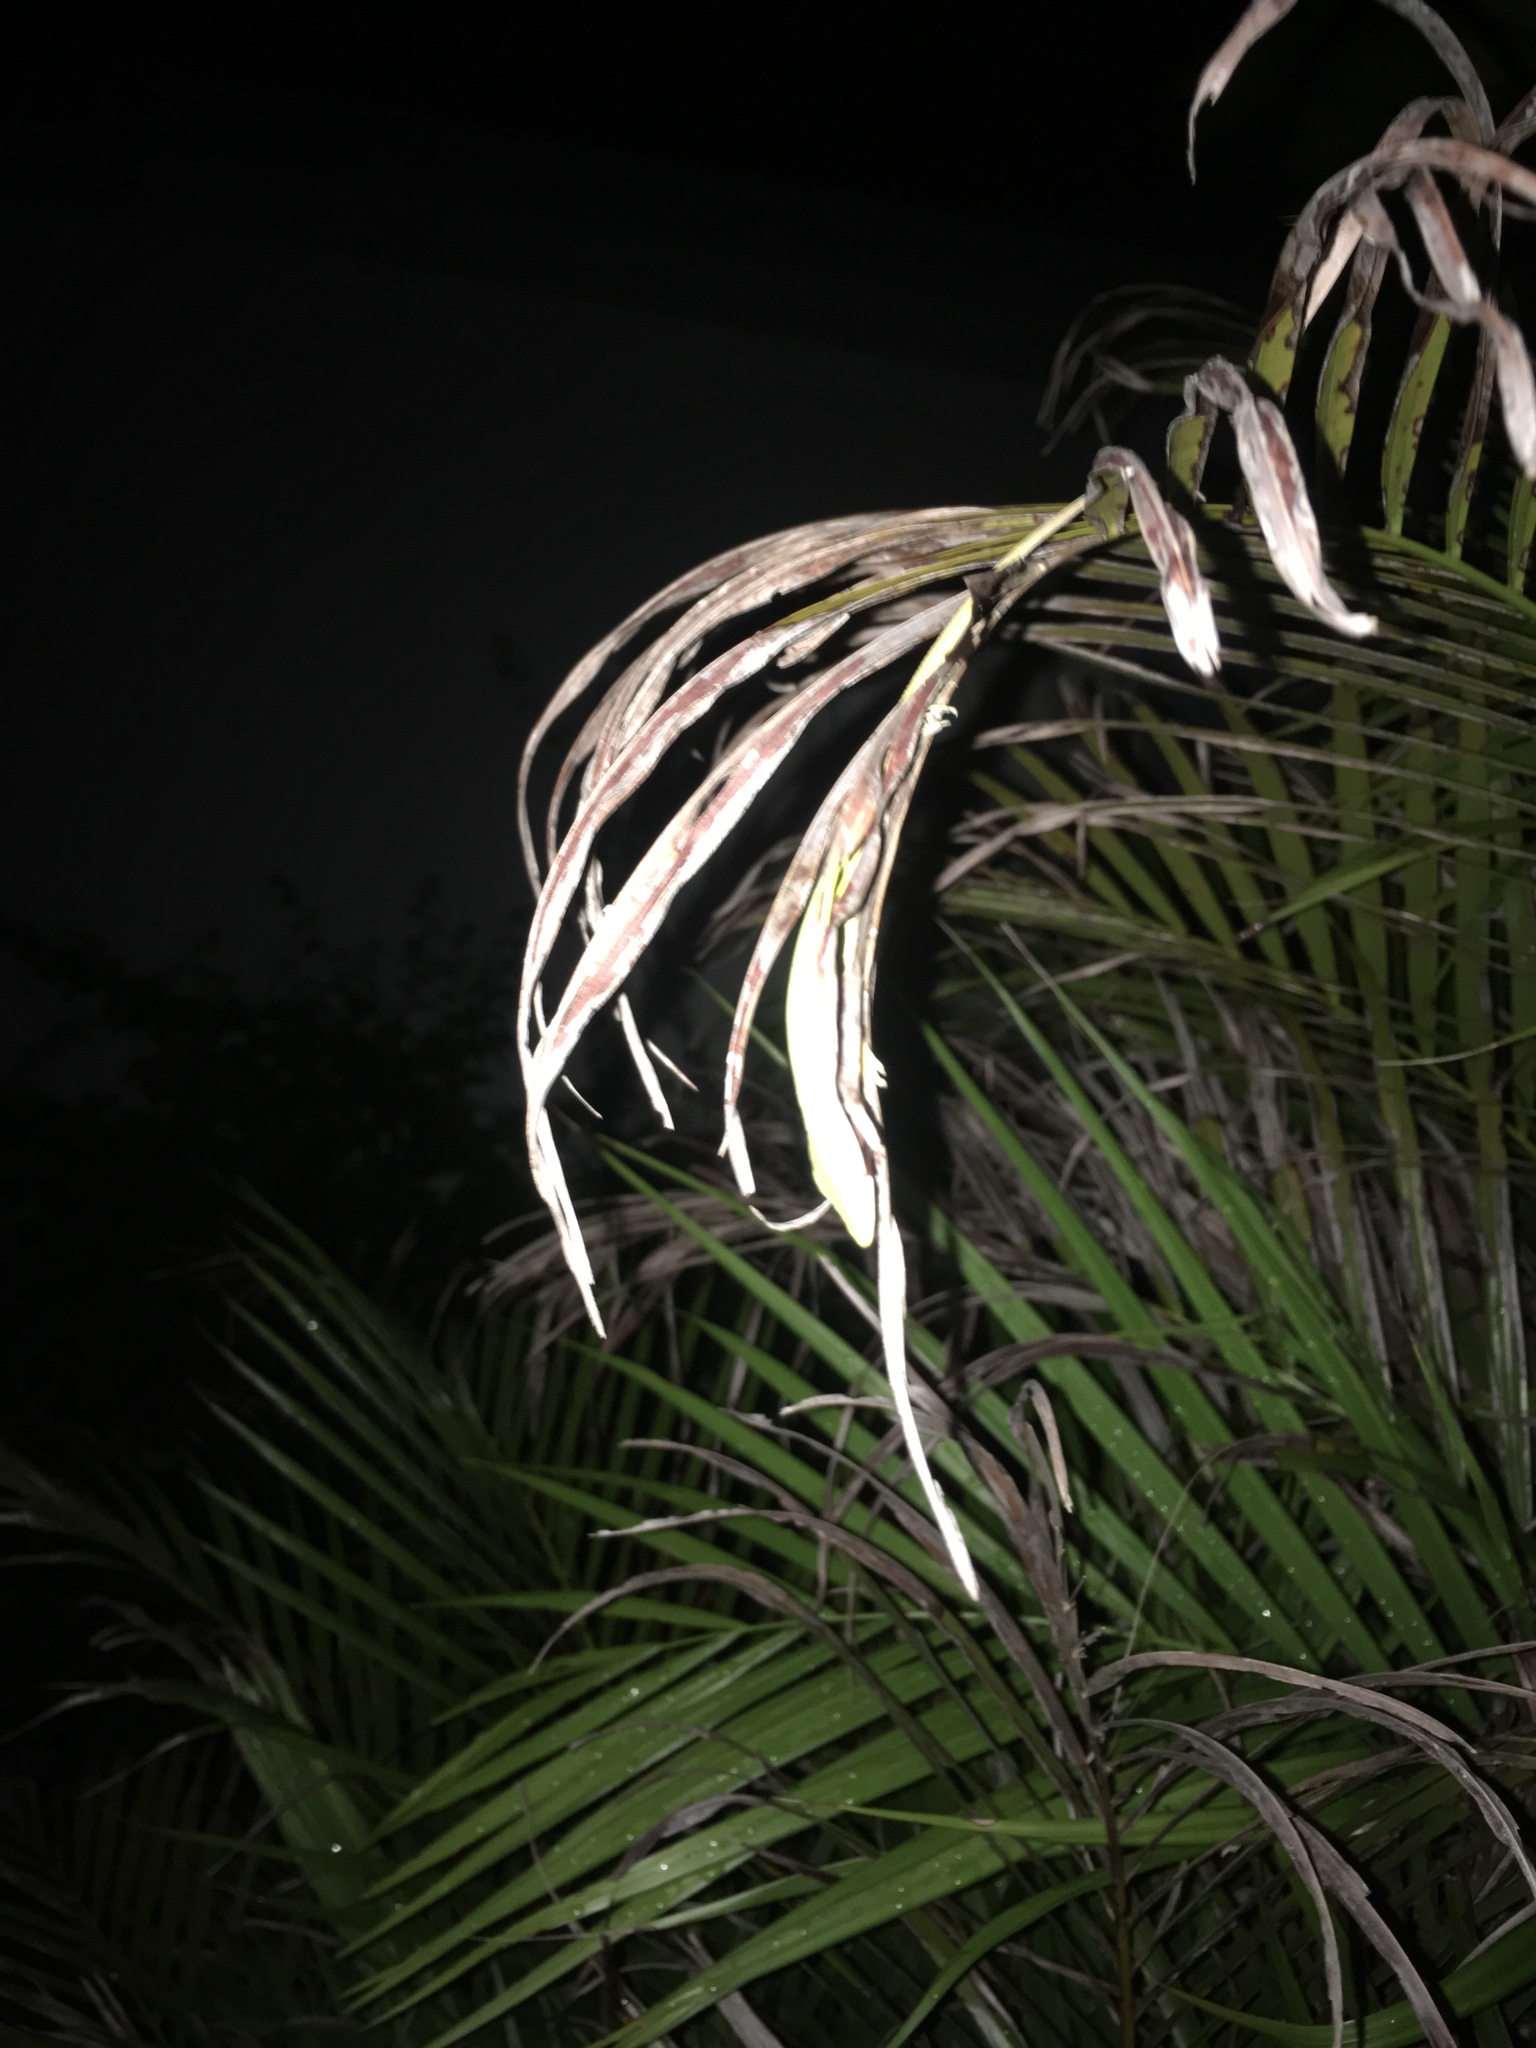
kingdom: Animalia
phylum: Chordata
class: Squamata
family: Dactyloidae
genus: Anolis
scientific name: Anolis carolinensis
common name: Green anole
